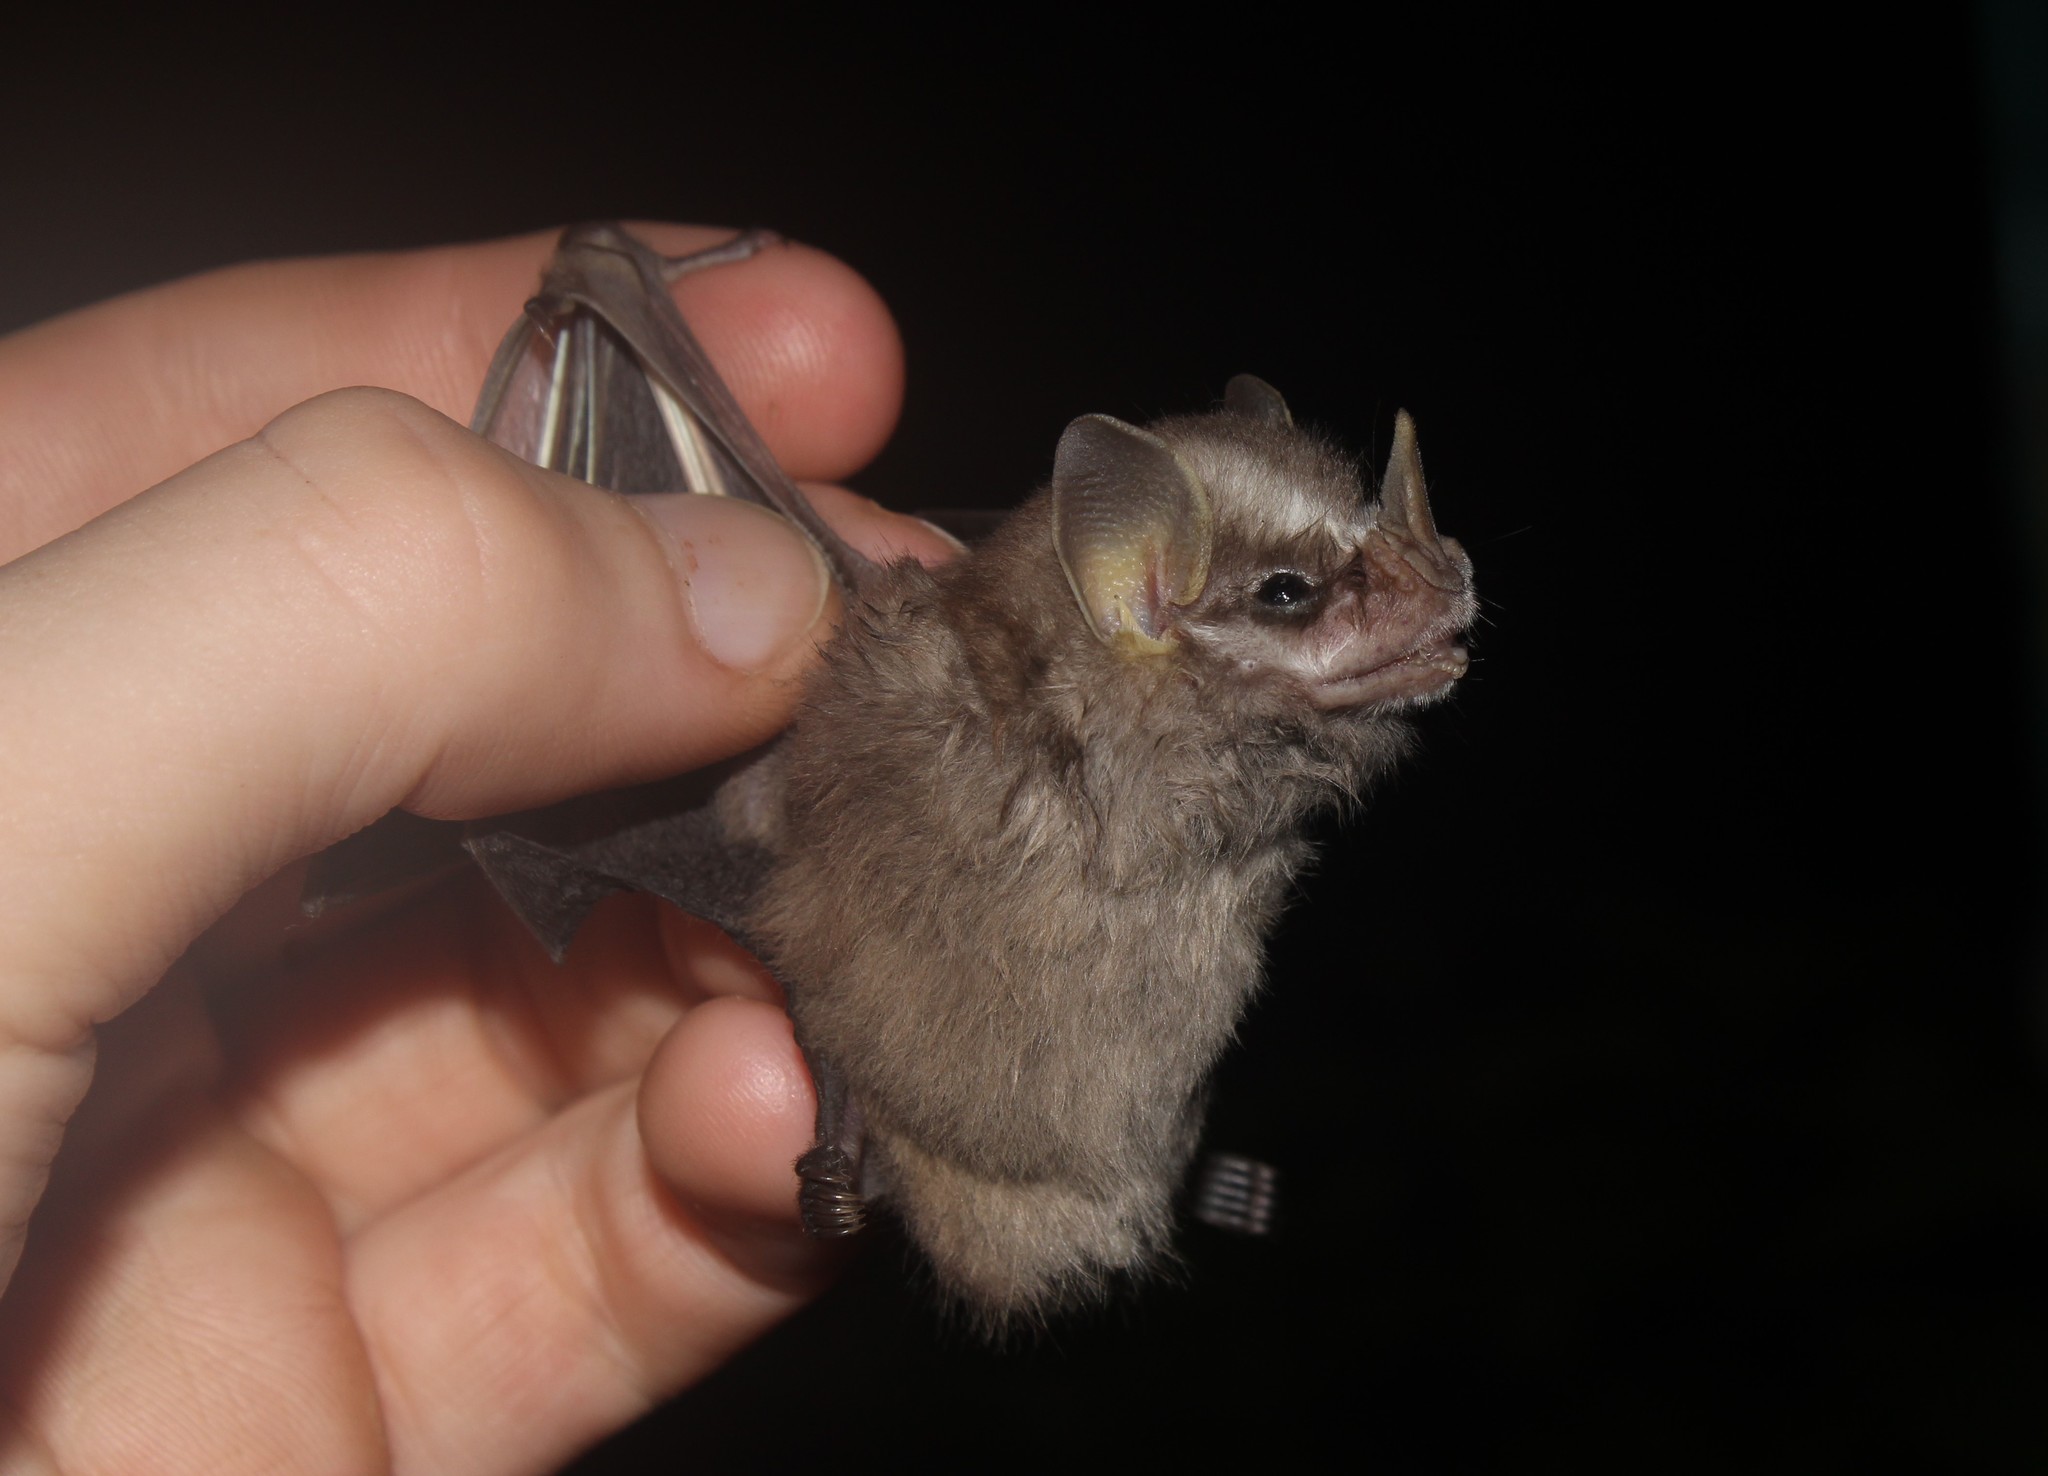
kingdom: Animalia
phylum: Chordata
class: Mammalia
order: Chiroptera
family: Phyllostomidae
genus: Vampyressa
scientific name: Vampyressa pusilla
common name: Southern little yellow-eared bat
